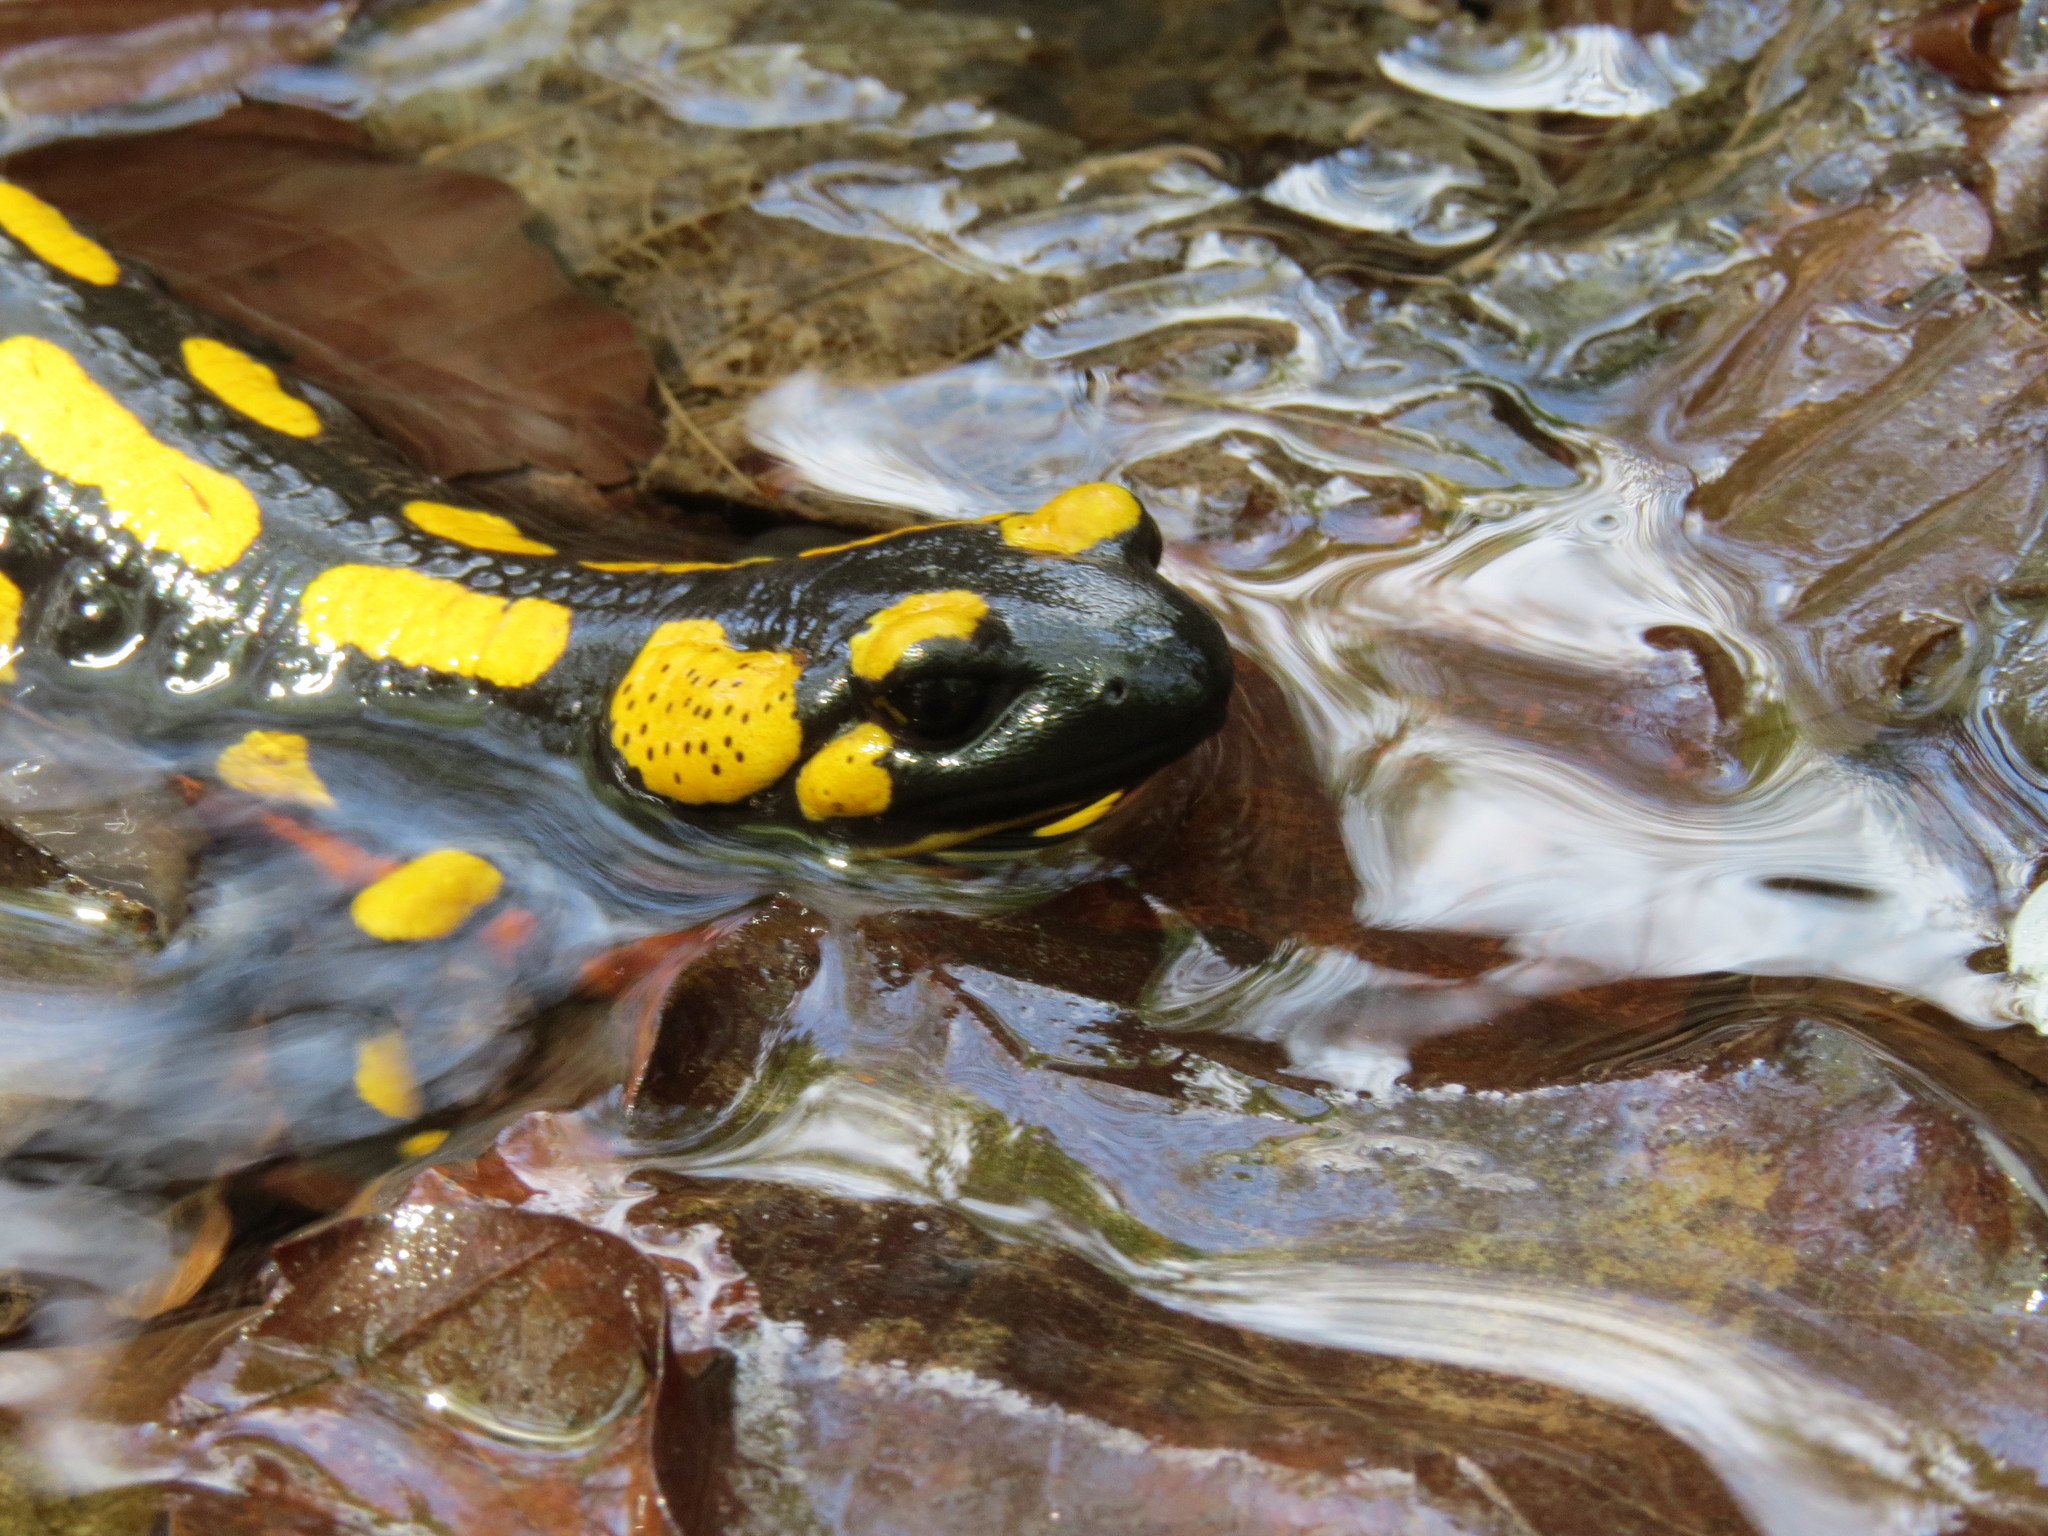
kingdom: Animalia
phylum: Chordata
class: Amphibia
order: Caudata
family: Salamandridae
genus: Salamandra
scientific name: Salamandra salamandra
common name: Fire salamander
